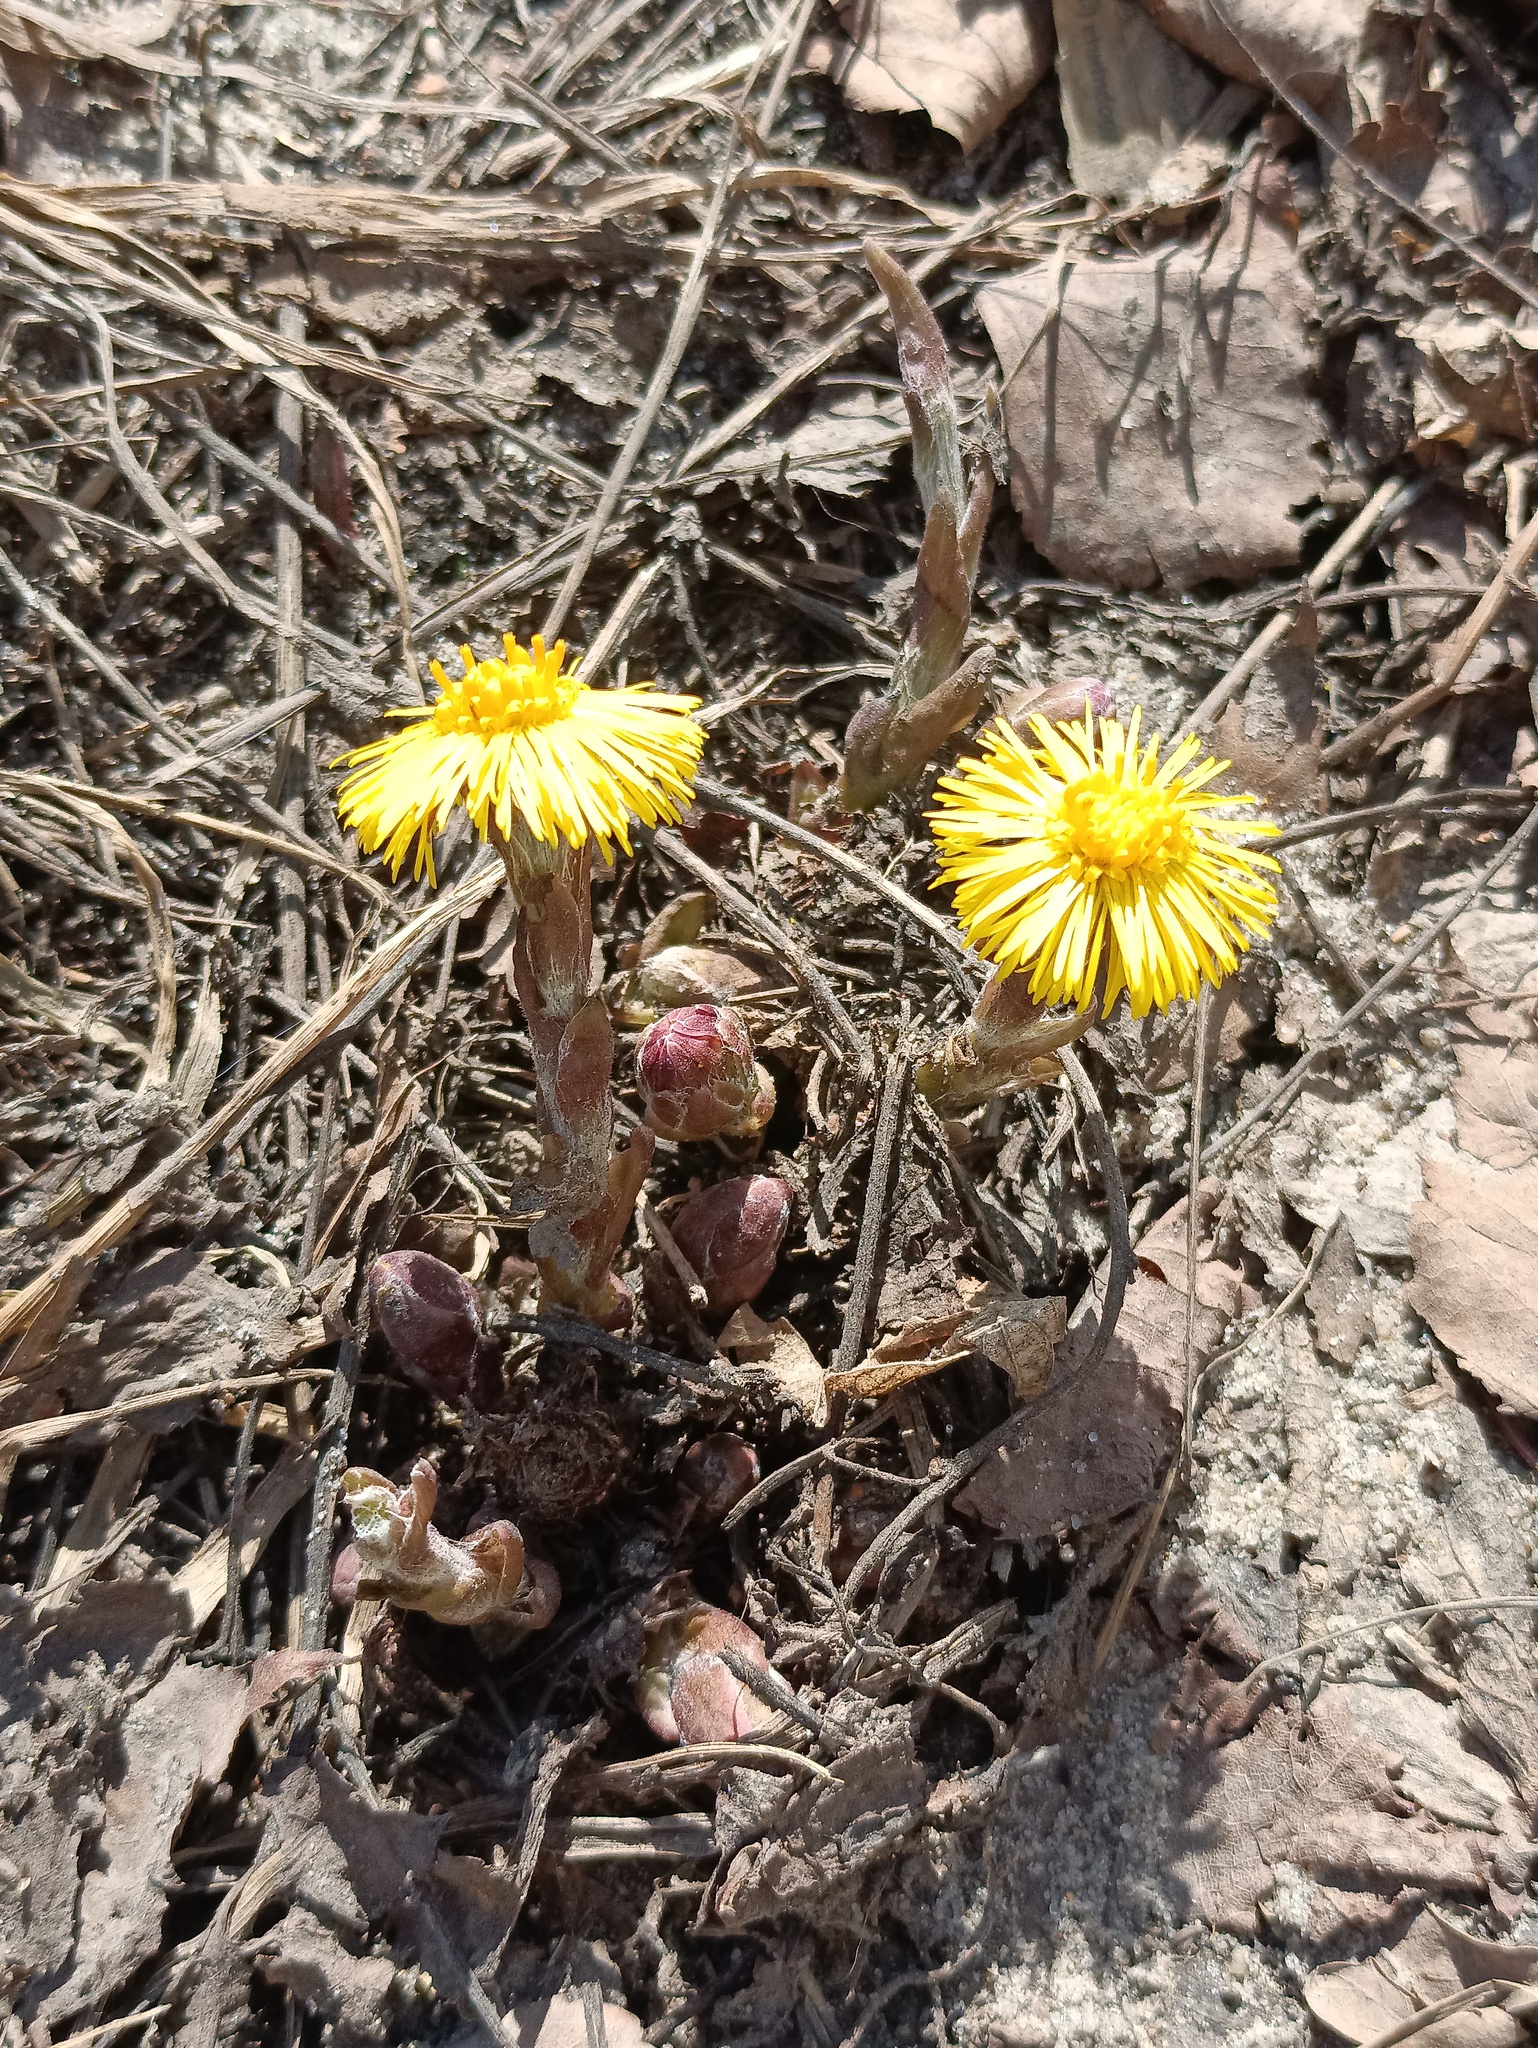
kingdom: Plantae
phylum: Tracheophyta
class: Magnoliopsida
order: Asterales
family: Asteraceae
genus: Tussilago
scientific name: Tussilago farfara
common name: Coltsfoot
